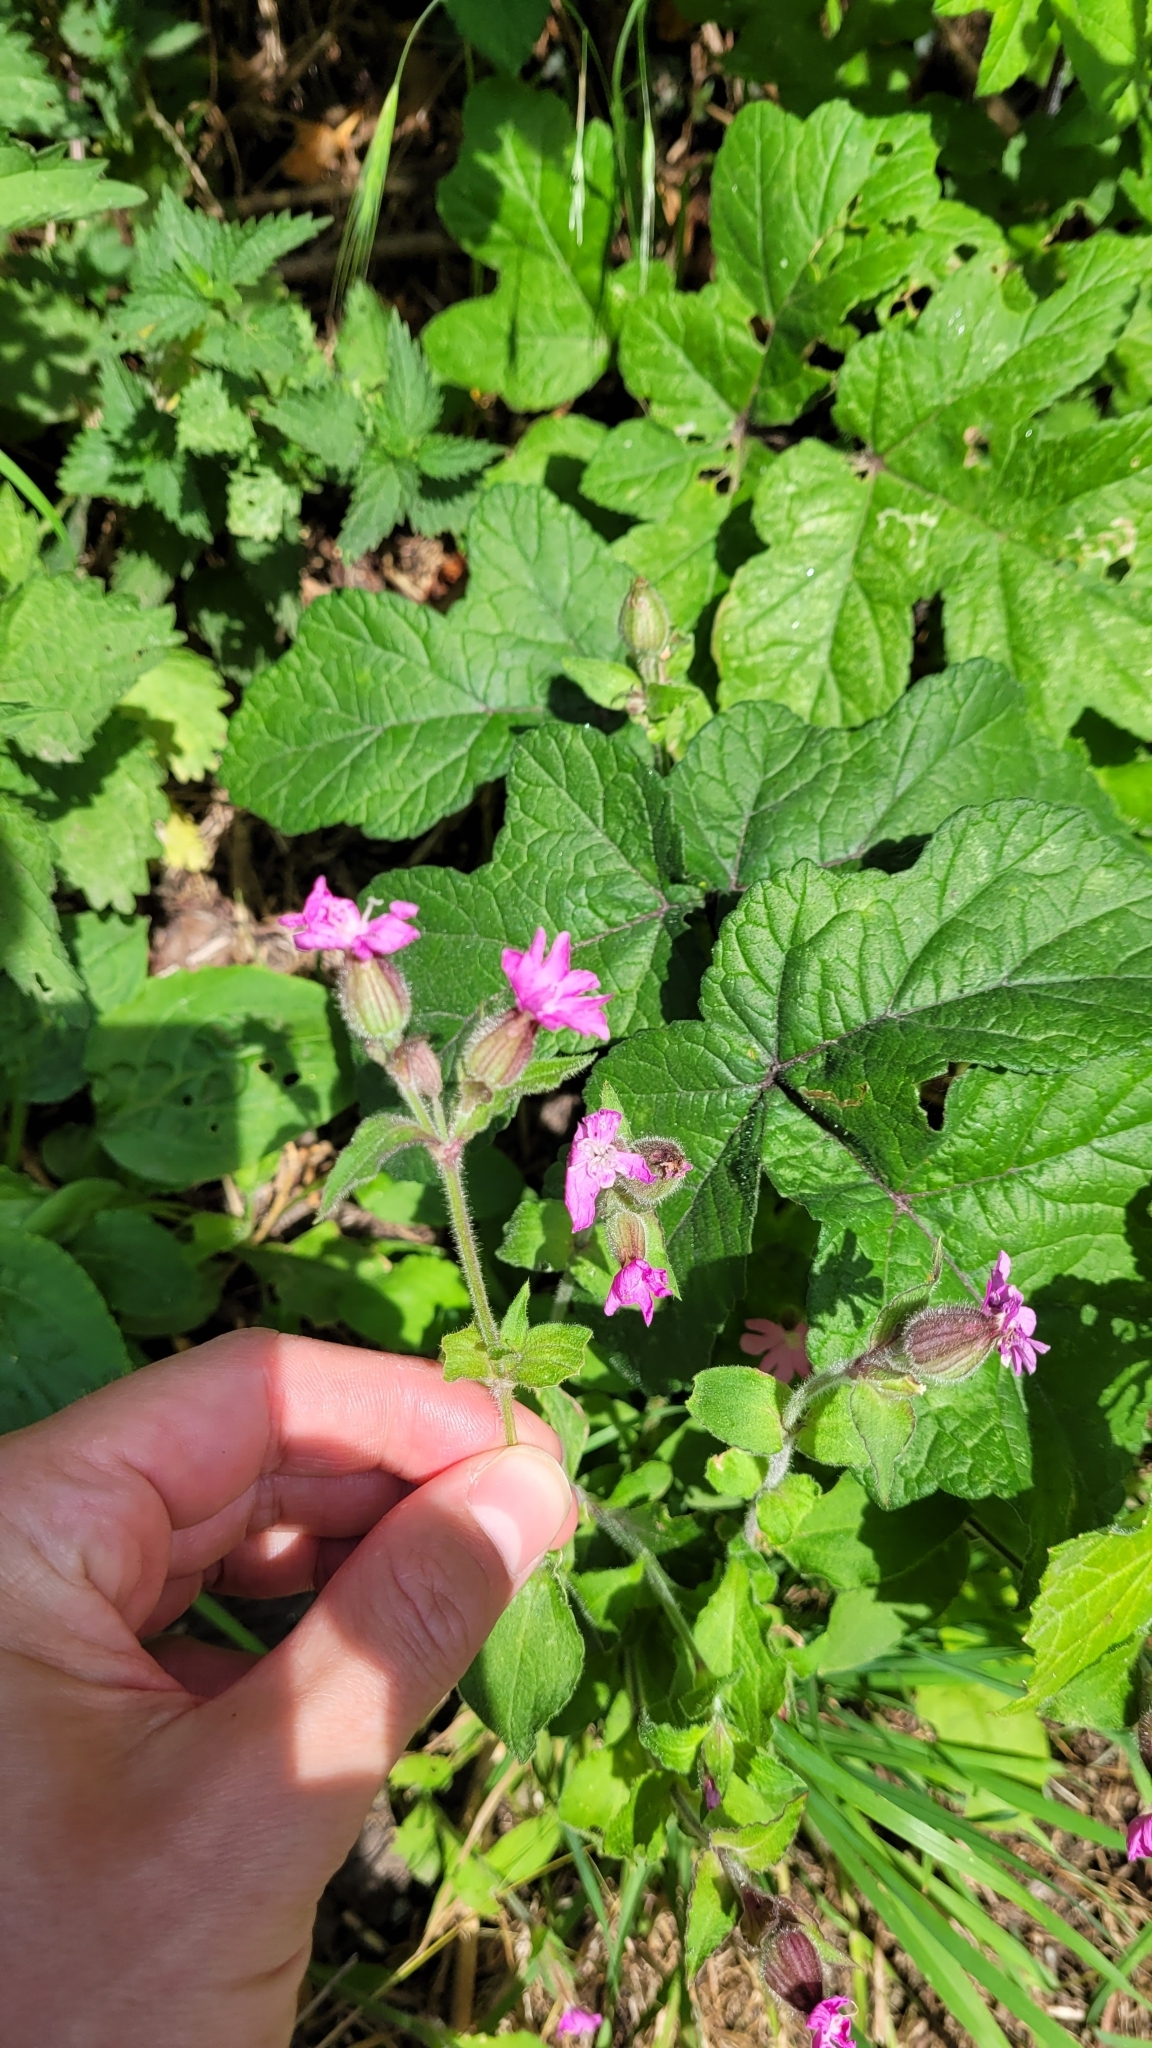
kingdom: Plantae
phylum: Tracheophyta
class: Magnoliopsida
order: Caryophyllales
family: Caryophyllaceae
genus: Silene
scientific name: Silene dioica
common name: Red campion
